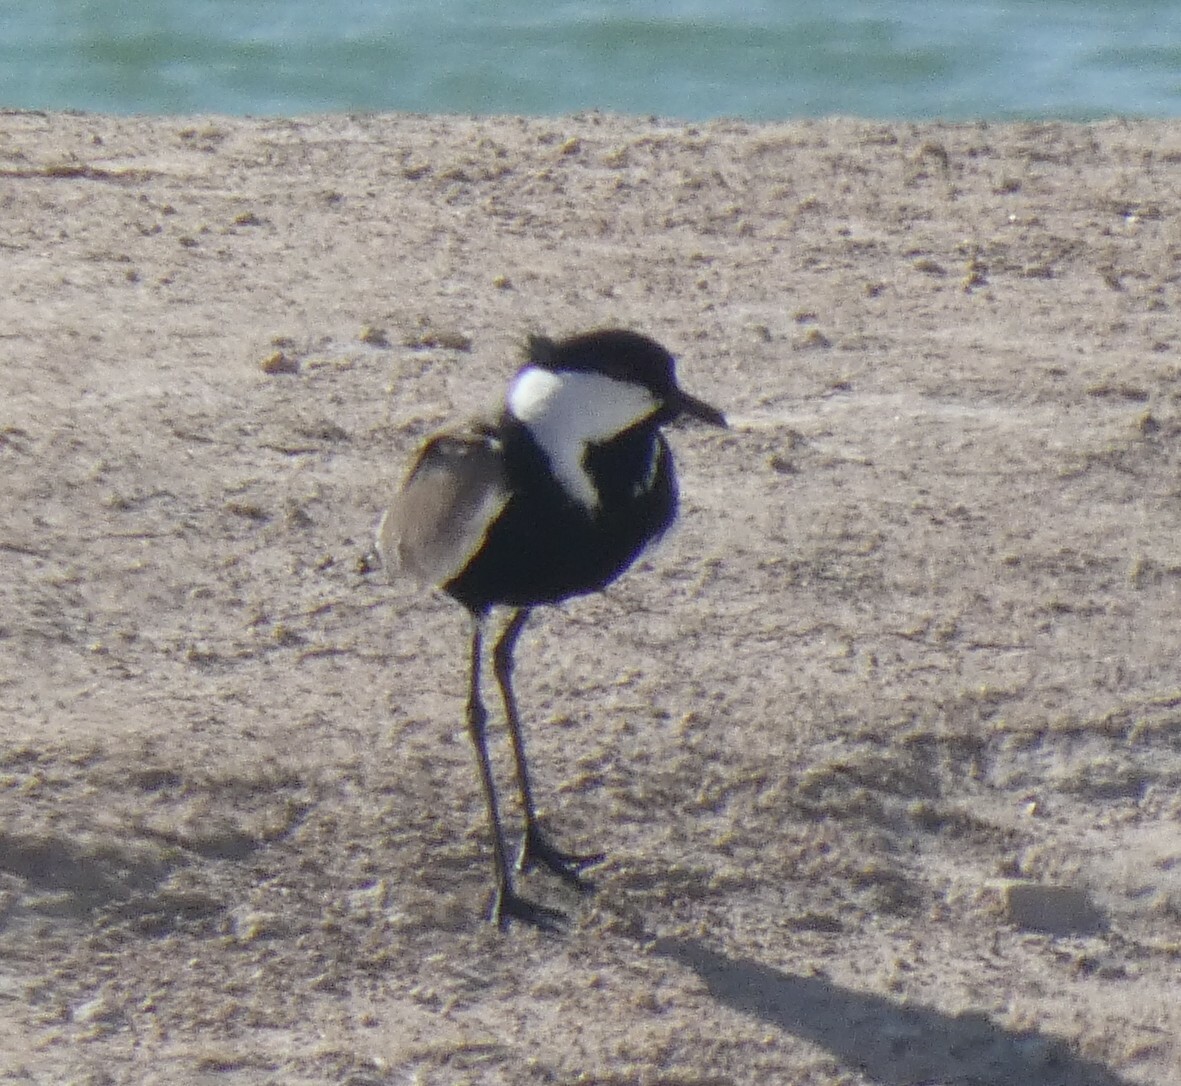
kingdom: Animalia
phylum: Chordata
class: Aves
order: Charadriiformes
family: Charadriidae
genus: Vanellus
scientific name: Vanellus spinosus
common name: Spur-winged lapwing
